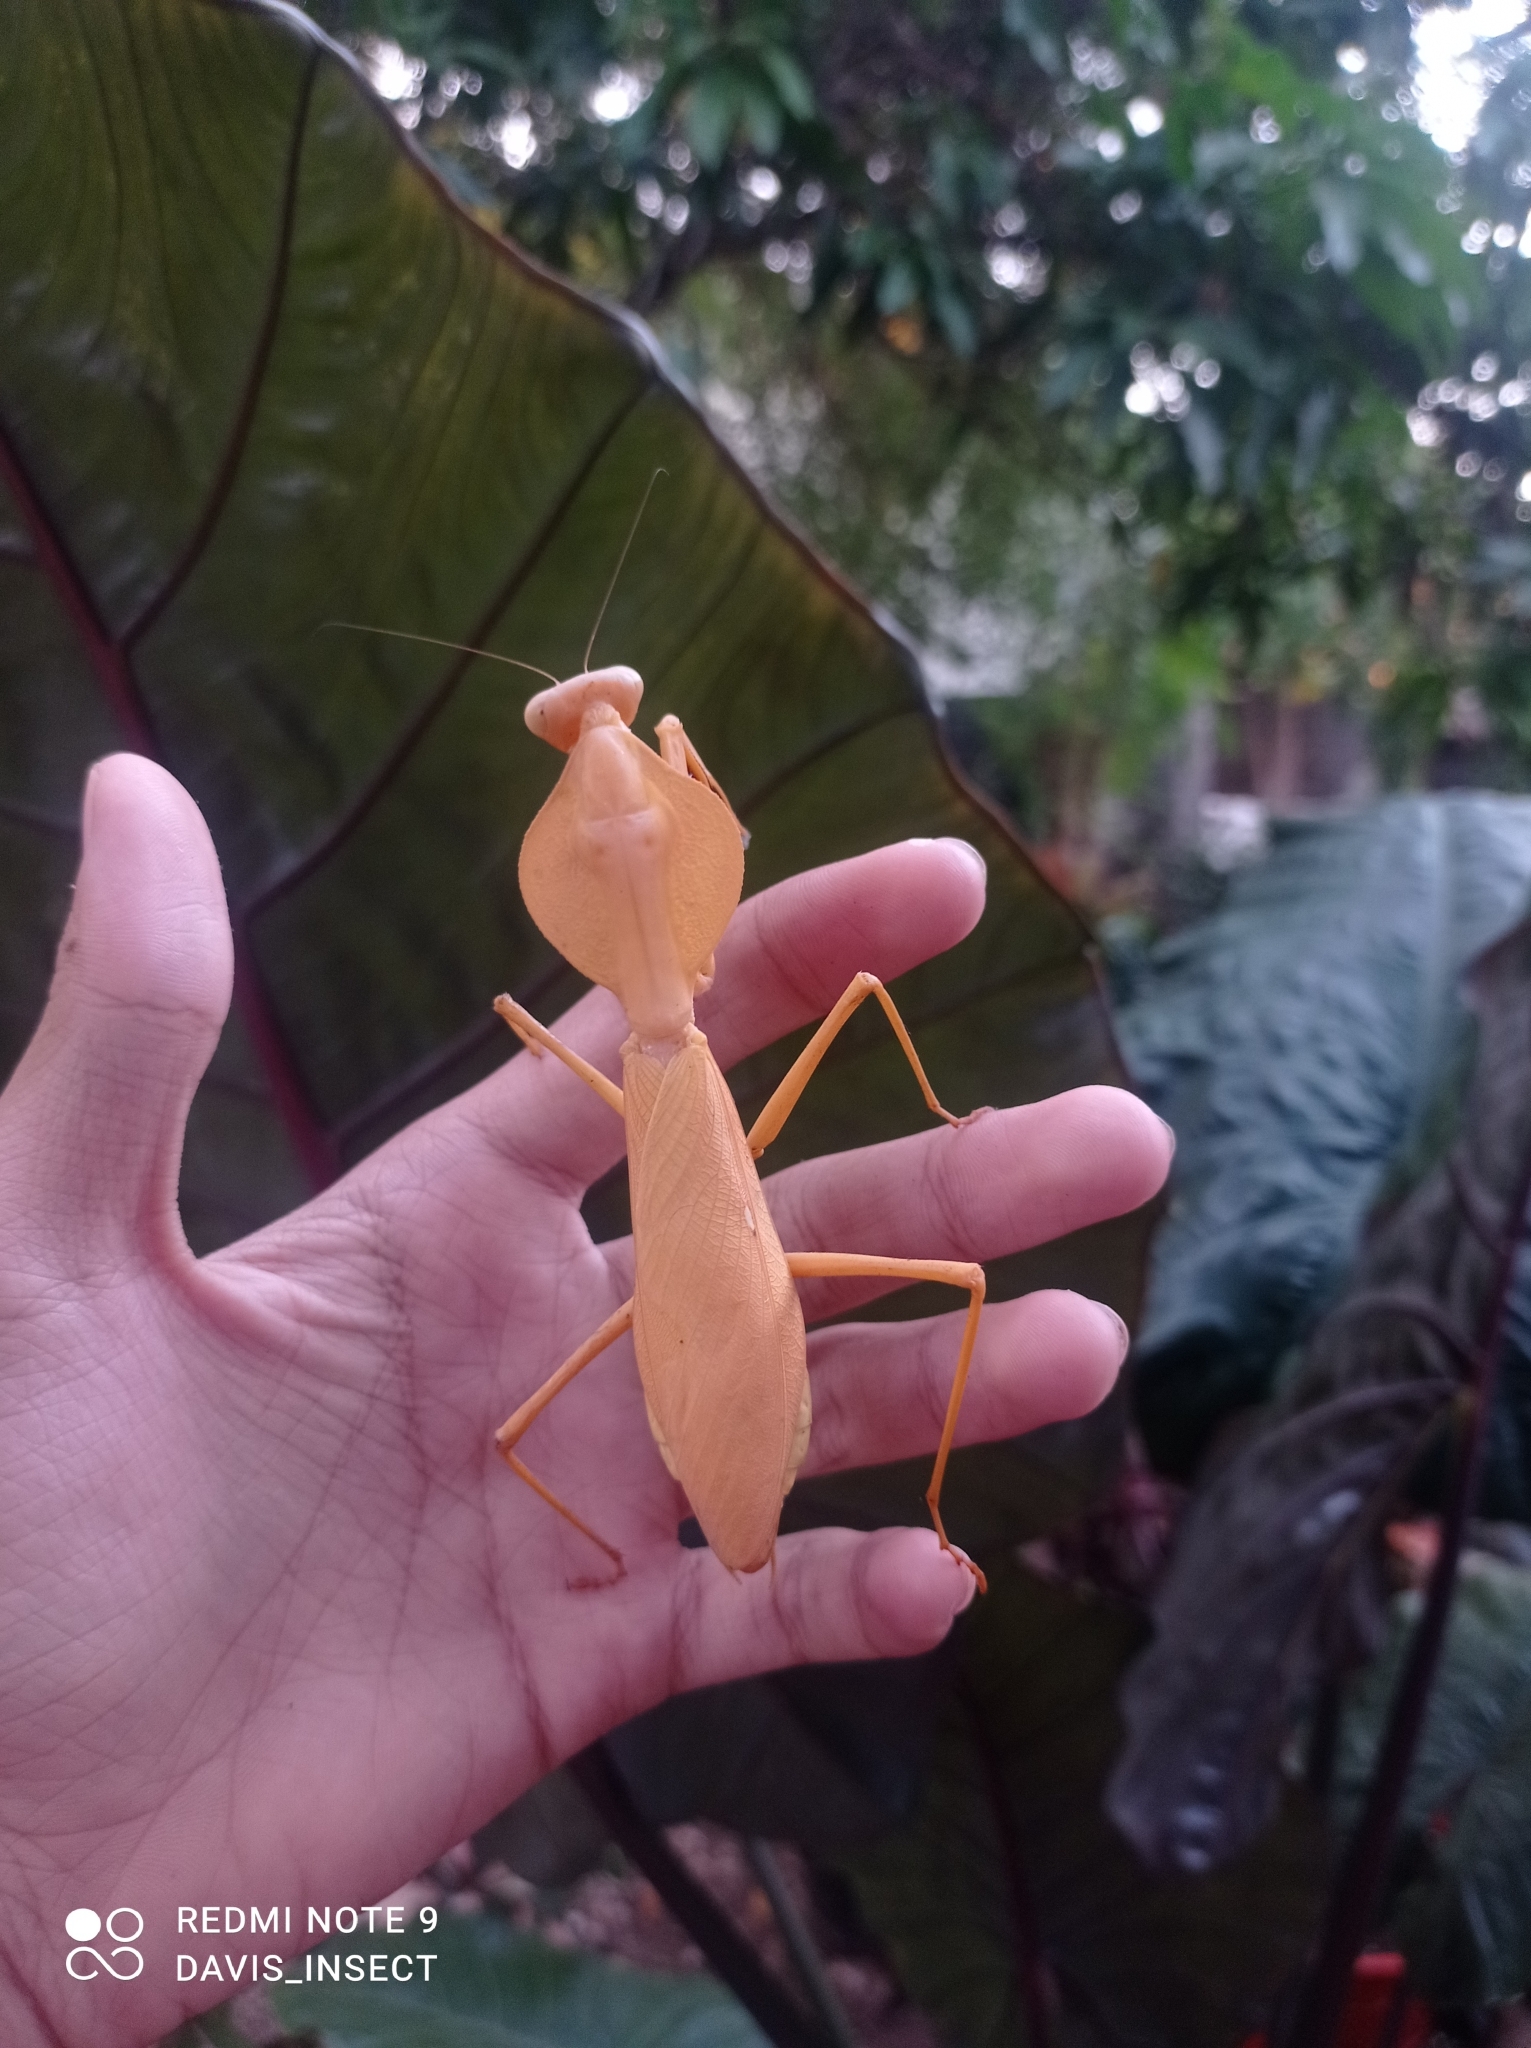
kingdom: Animalia
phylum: Arthropoda
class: Insecta
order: Mantodea
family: Mantidae
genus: Rhombodera
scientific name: Rhombodera kirbyi
